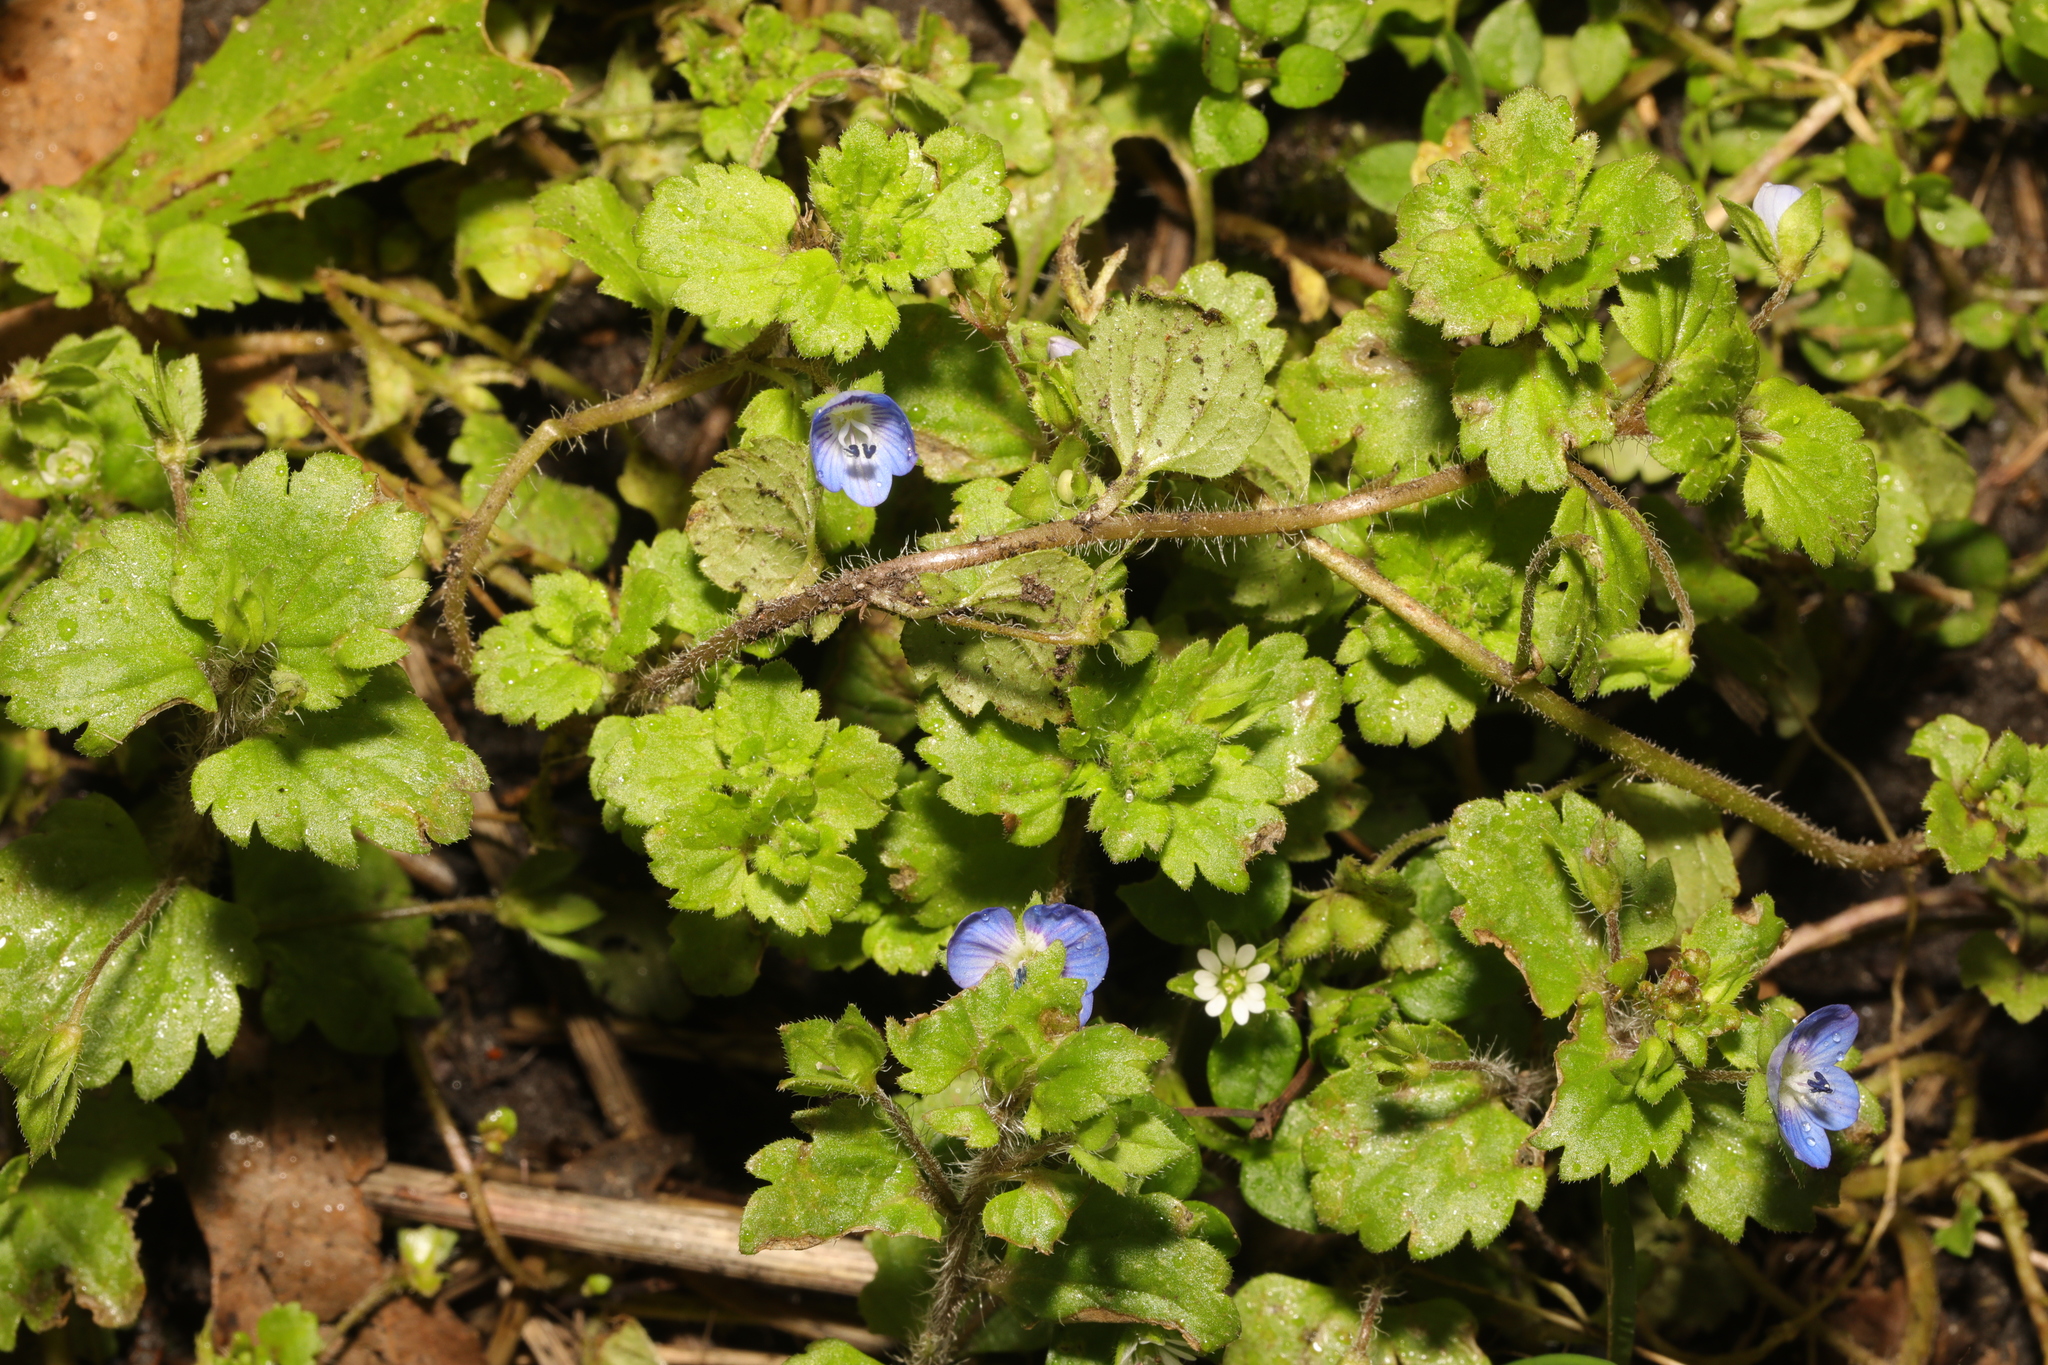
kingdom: Plantae
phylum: Tracheophyta
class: Magnoliopsida
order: Lamiales
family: Plantaginaceae
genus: Veronica
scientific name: Veronica persica
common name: Common field-speedwell
